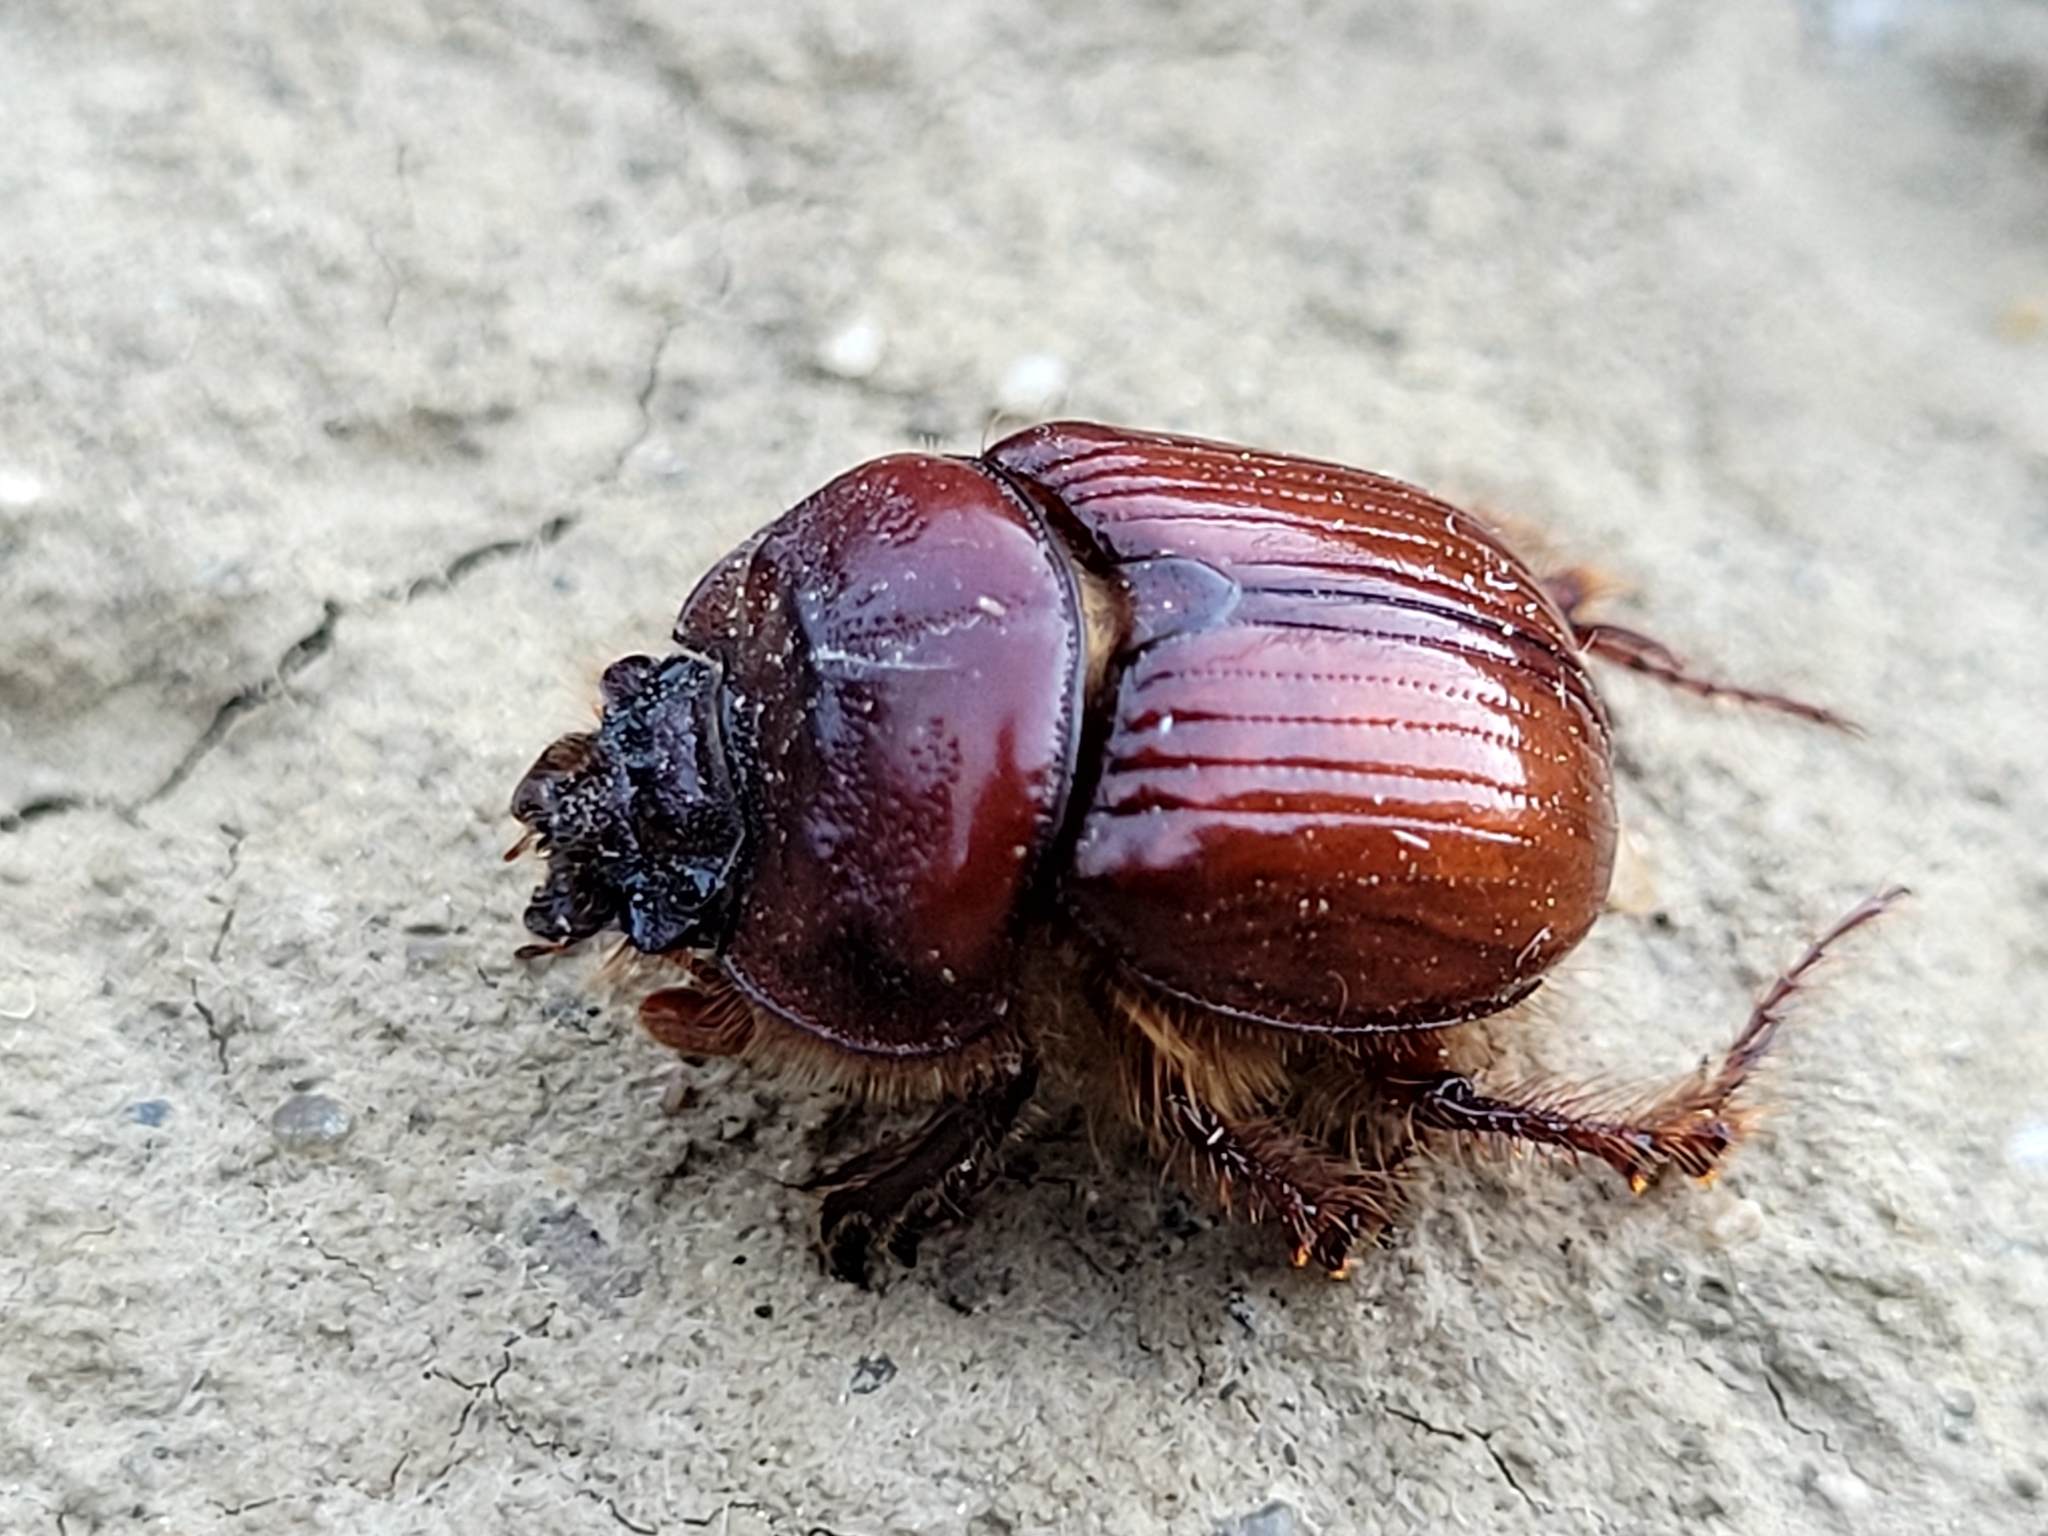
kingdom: Animalia
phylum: Arthropoda
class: Insecta
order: Coleoptera
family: Geotrupidae
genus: Eucanthus
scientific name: Eucanthus greeni
